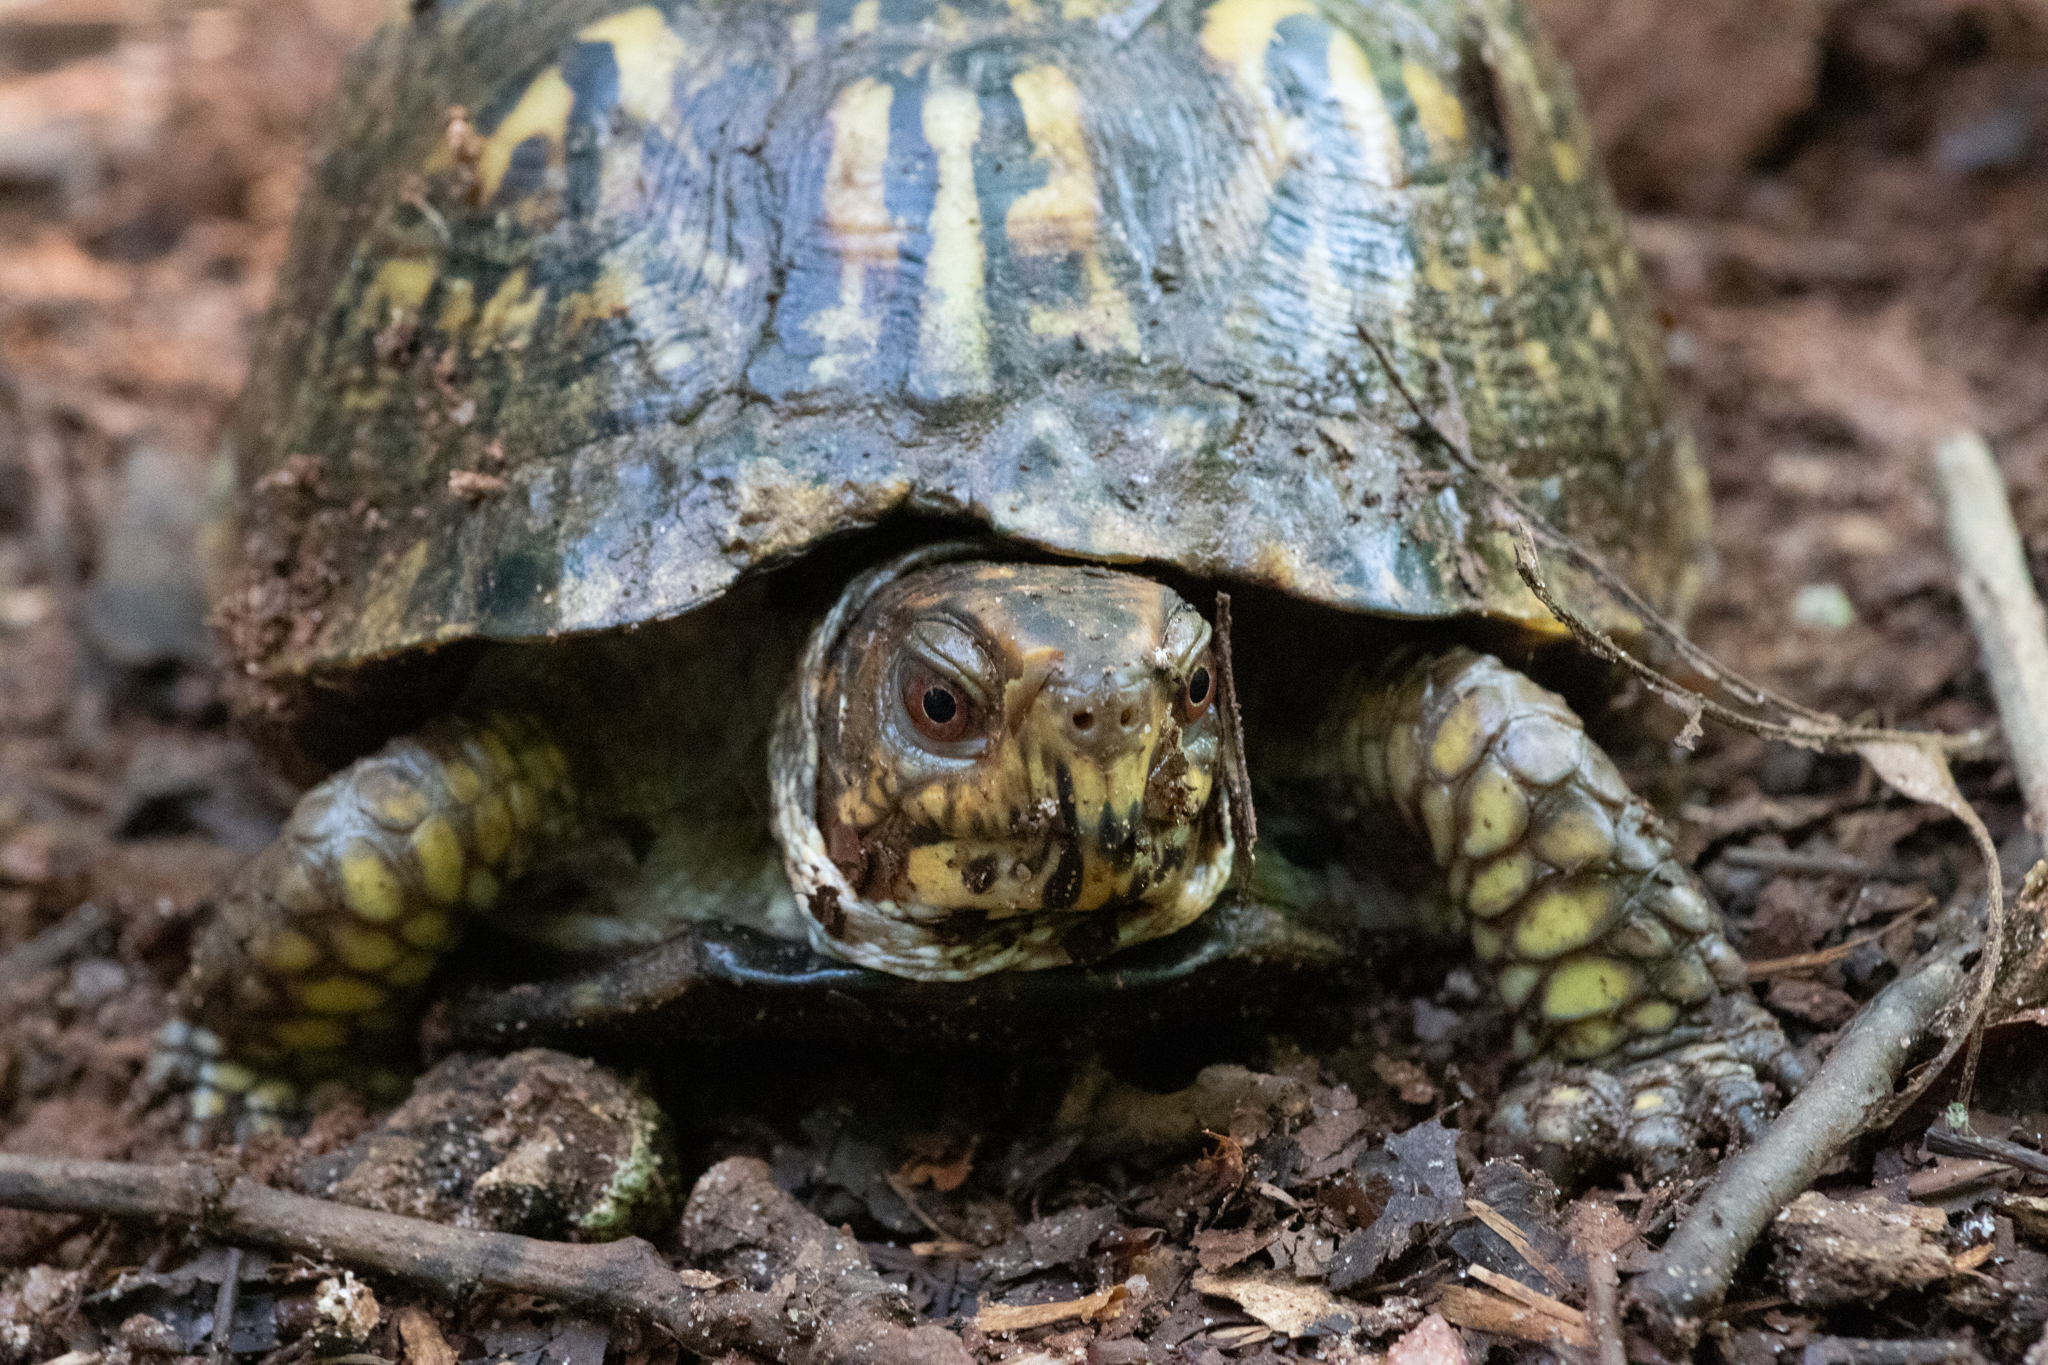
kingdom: Animalia
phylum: Chordata
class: Testudines
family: Emydidae
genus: Terrapene
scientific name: Terrapene carolina
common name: Common box turtle
